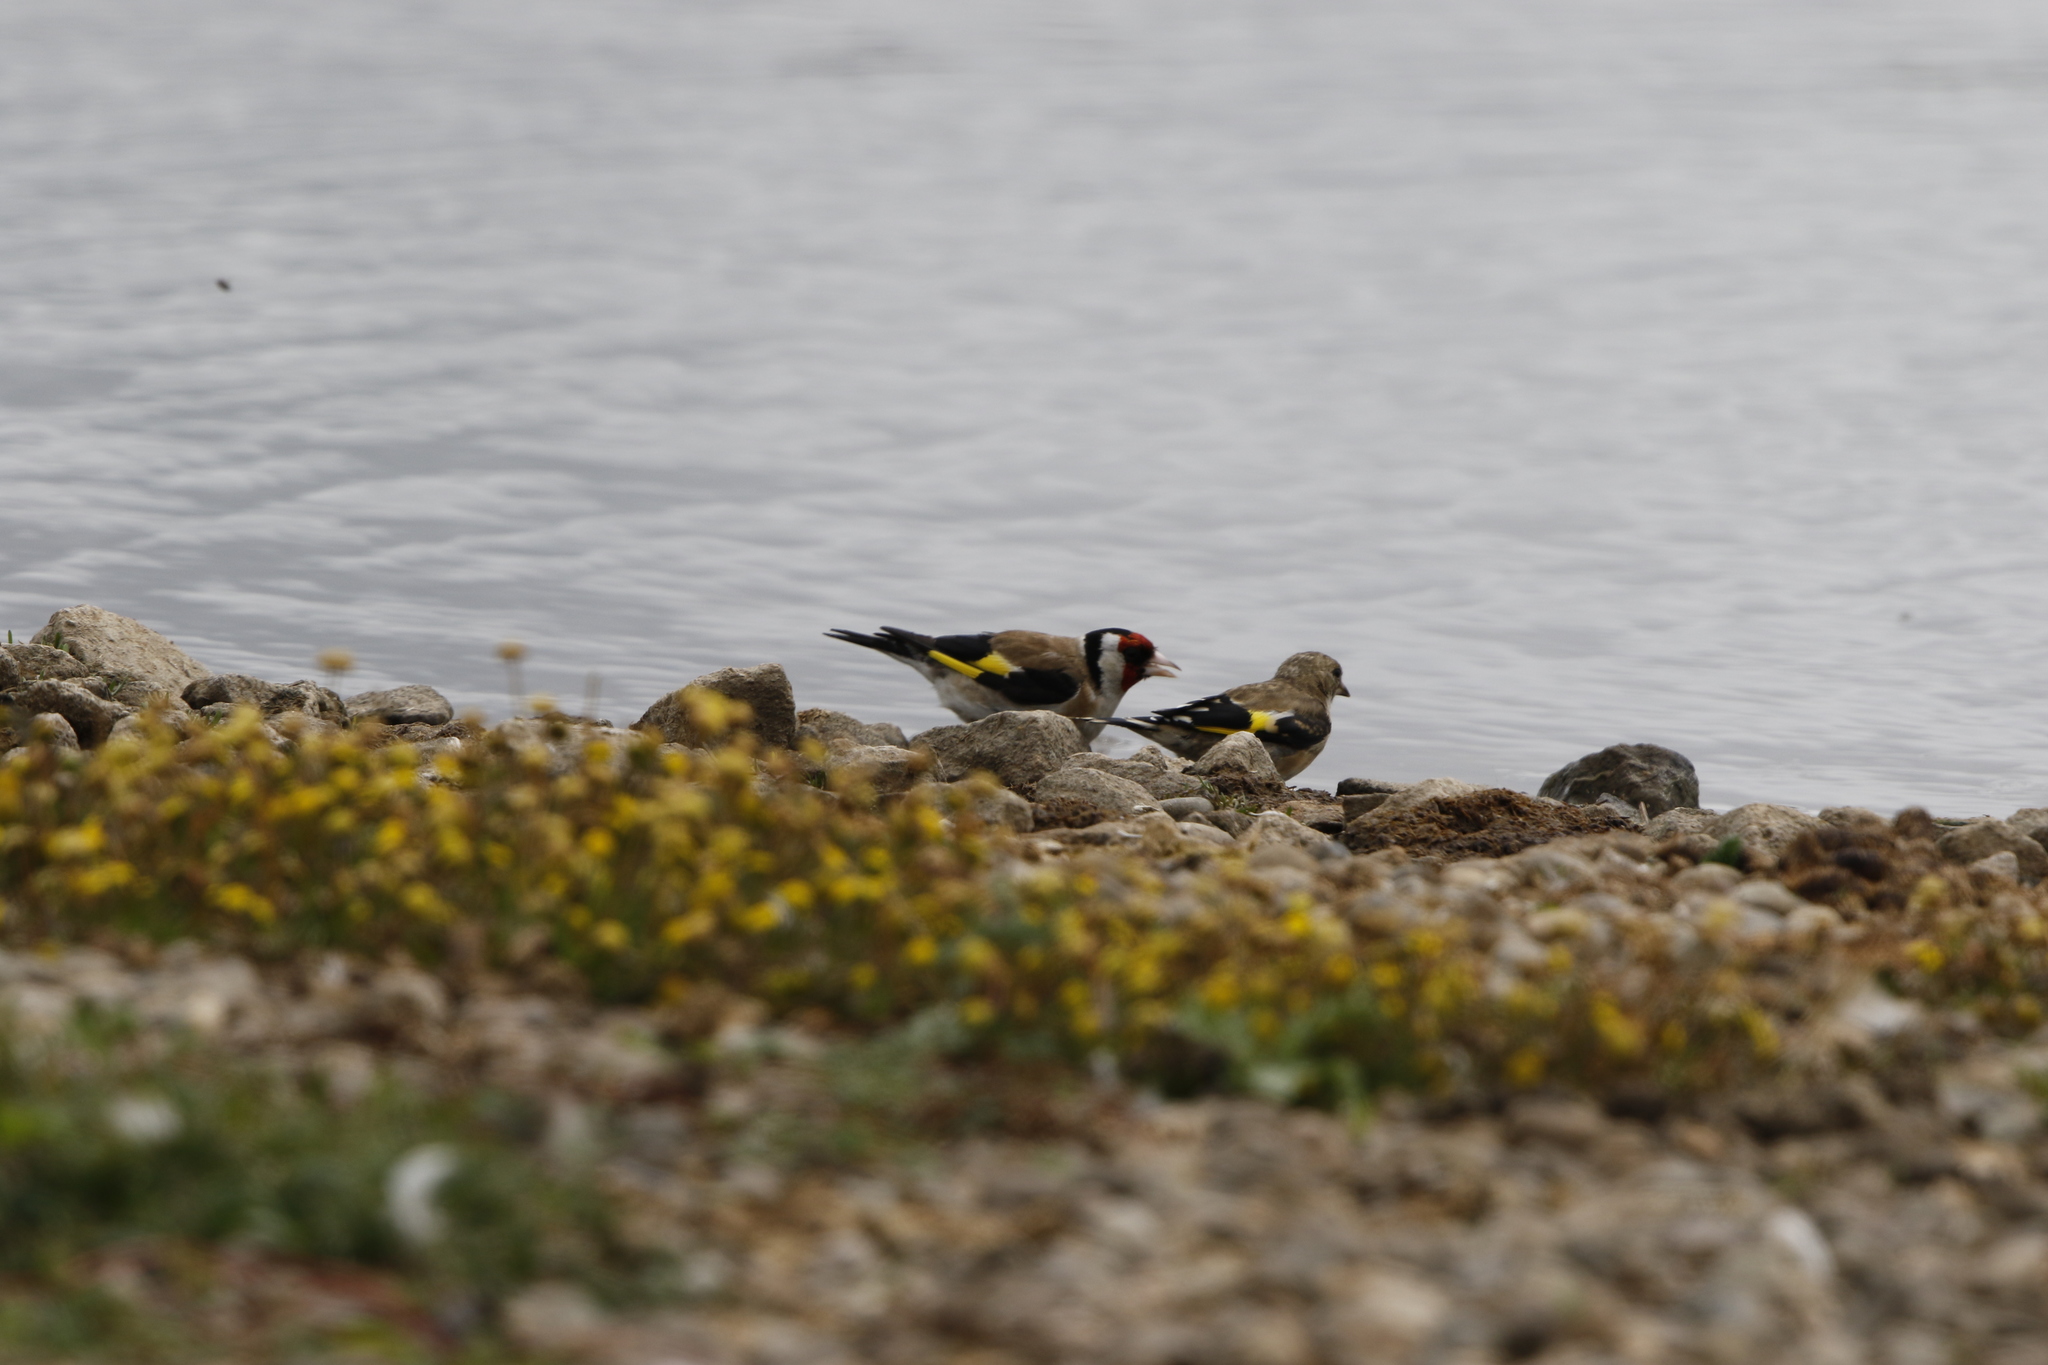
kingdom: Animalia
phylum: Chordata
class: Aves
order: Passeriformes
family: Fringillidae
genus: Carduelis
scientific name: Carduelis carduelis
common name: European goldfinch
